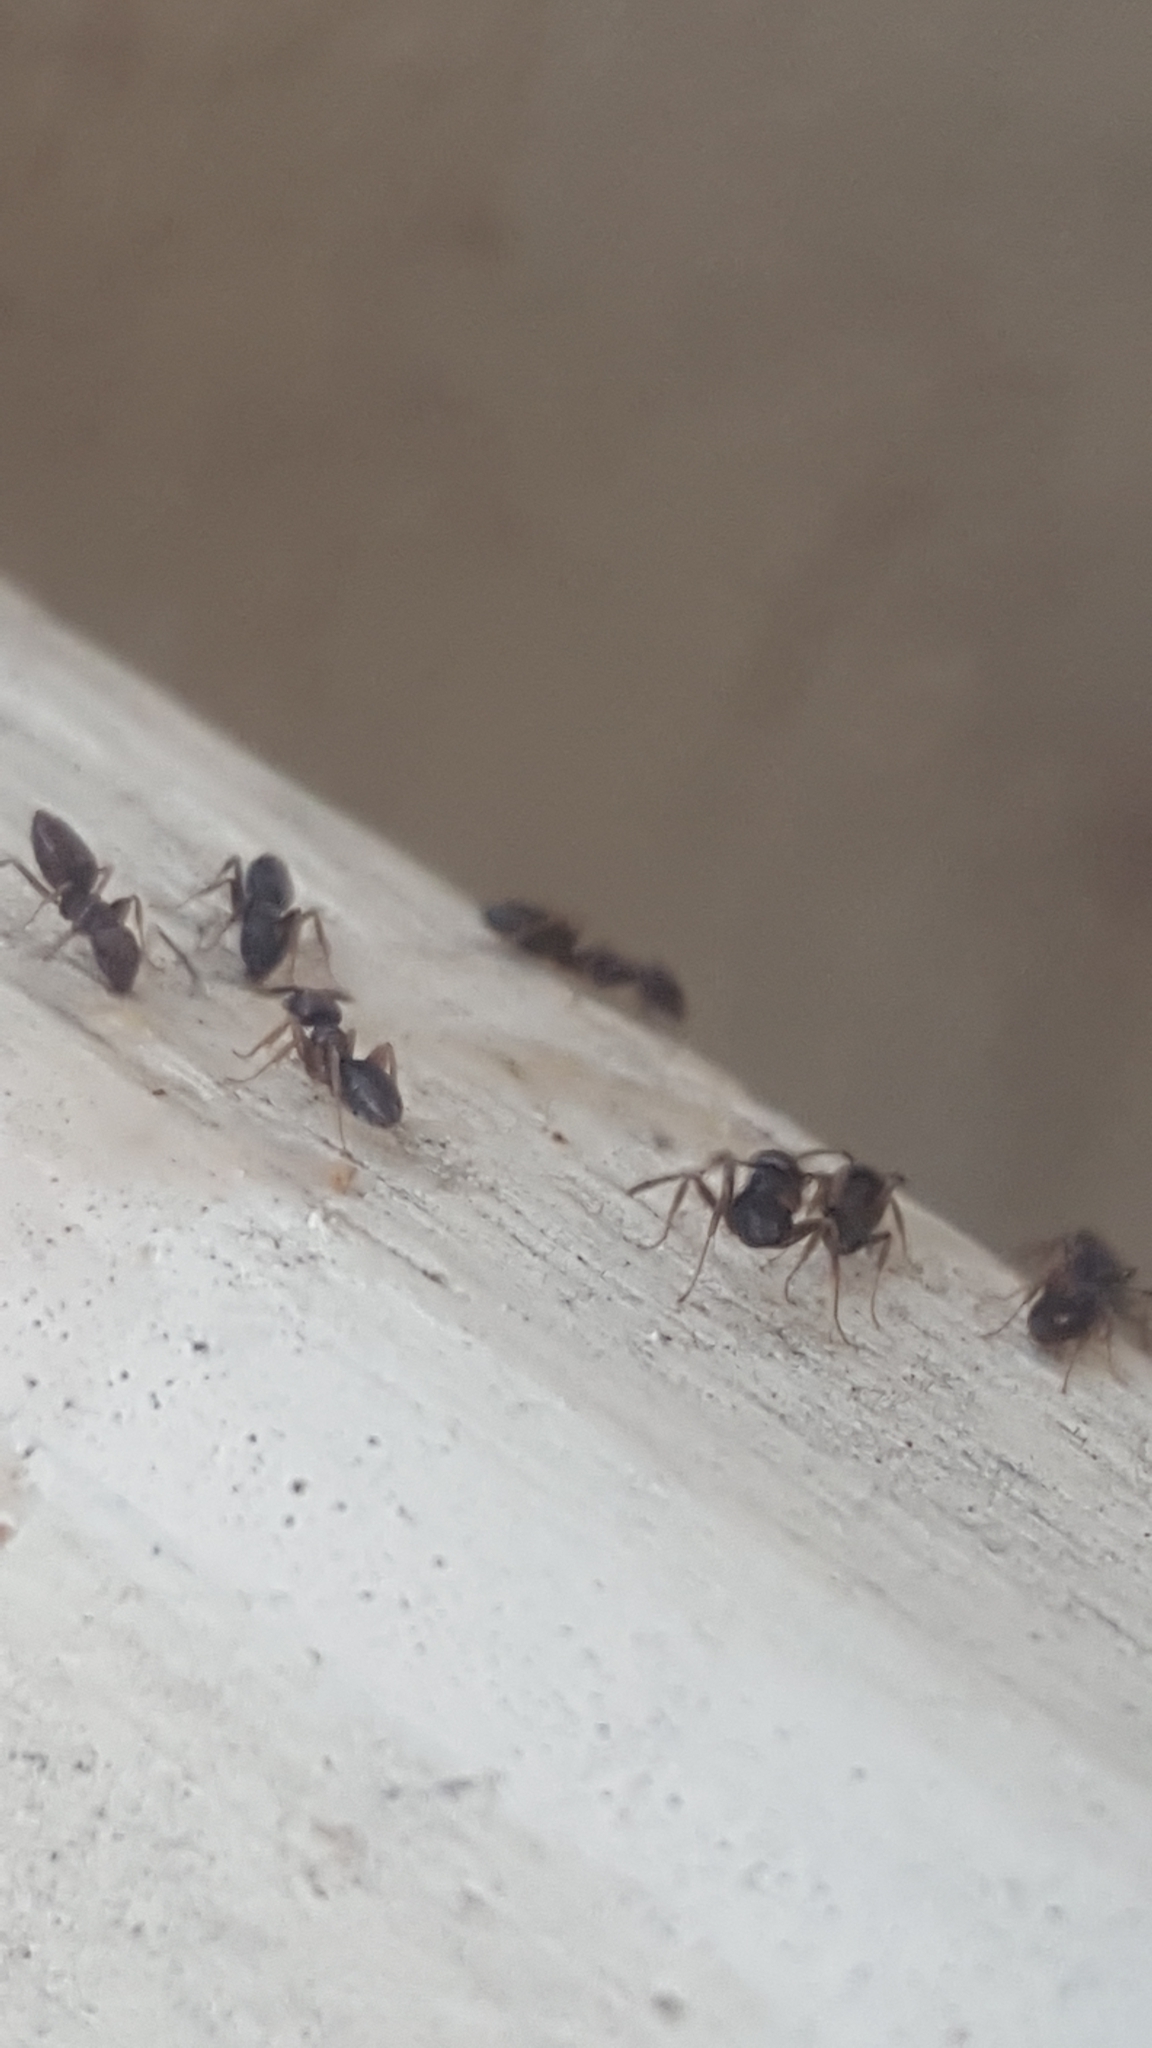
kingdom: Animalia
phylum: Arthropoda
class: Insecta
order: Hymenoptera
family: Formicidae
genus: Tapinoma
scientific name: Tapinoma sessile
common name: Odorous house ant
